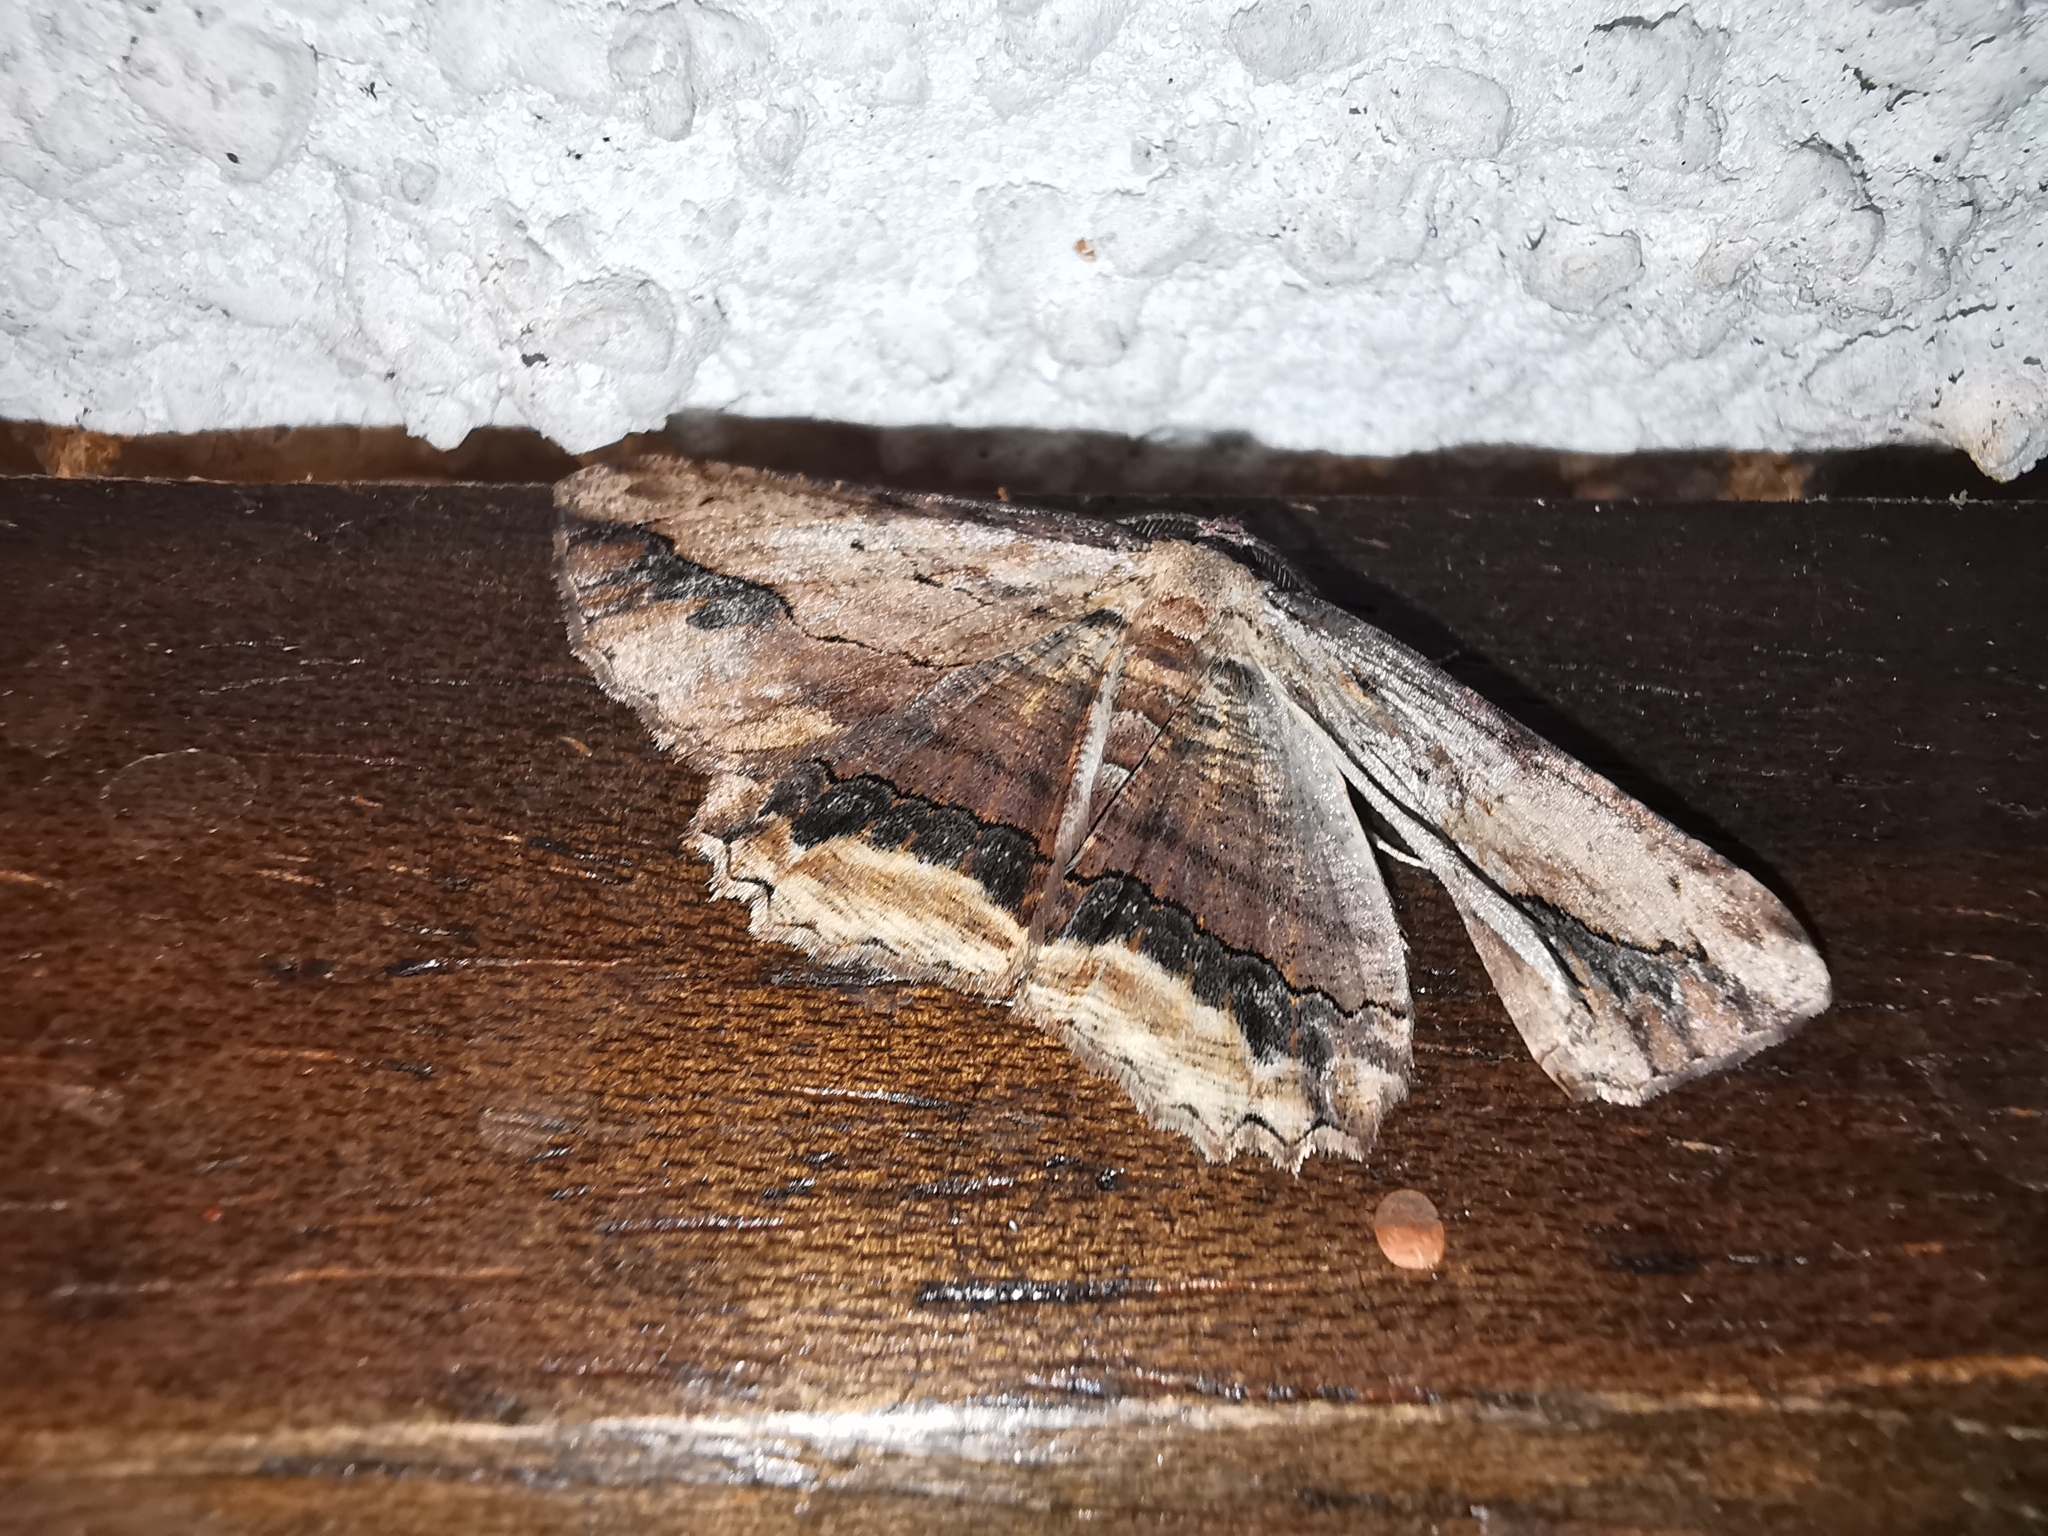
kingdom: Animalia
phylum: Arthropoda
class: Insecta
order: Lepidoptera
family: Geometridae
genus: Menophra
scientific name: Menophra abruptaria
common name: Waved umber
